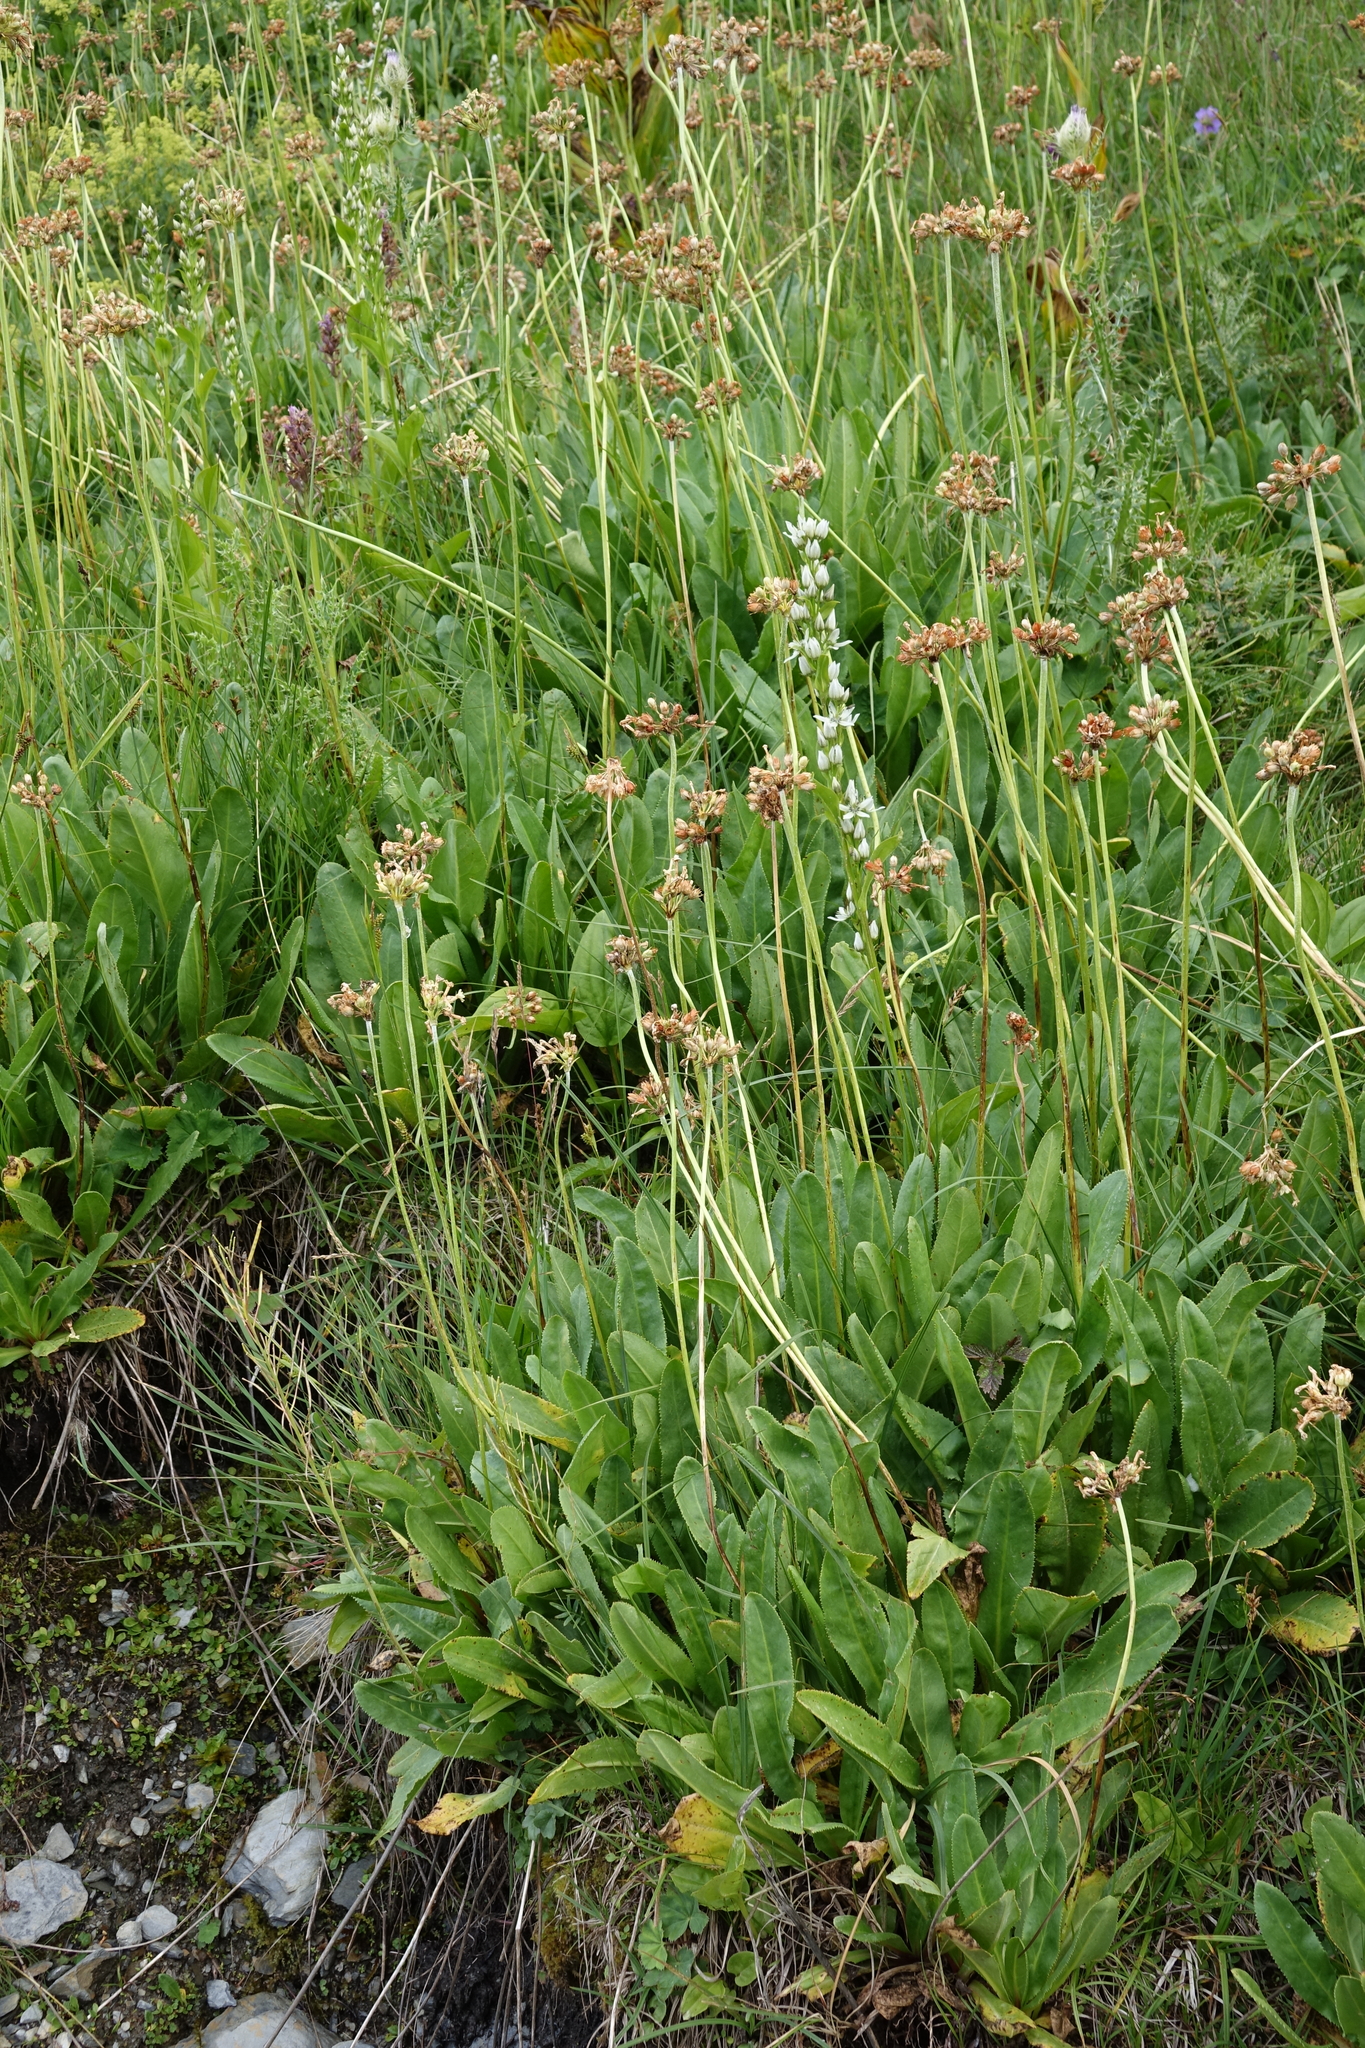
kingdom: Plantae
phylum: Tracheophyta
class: Magnoliopsida
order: Ericales
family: Primulaceae
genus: Primula
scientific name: Primula luteola
